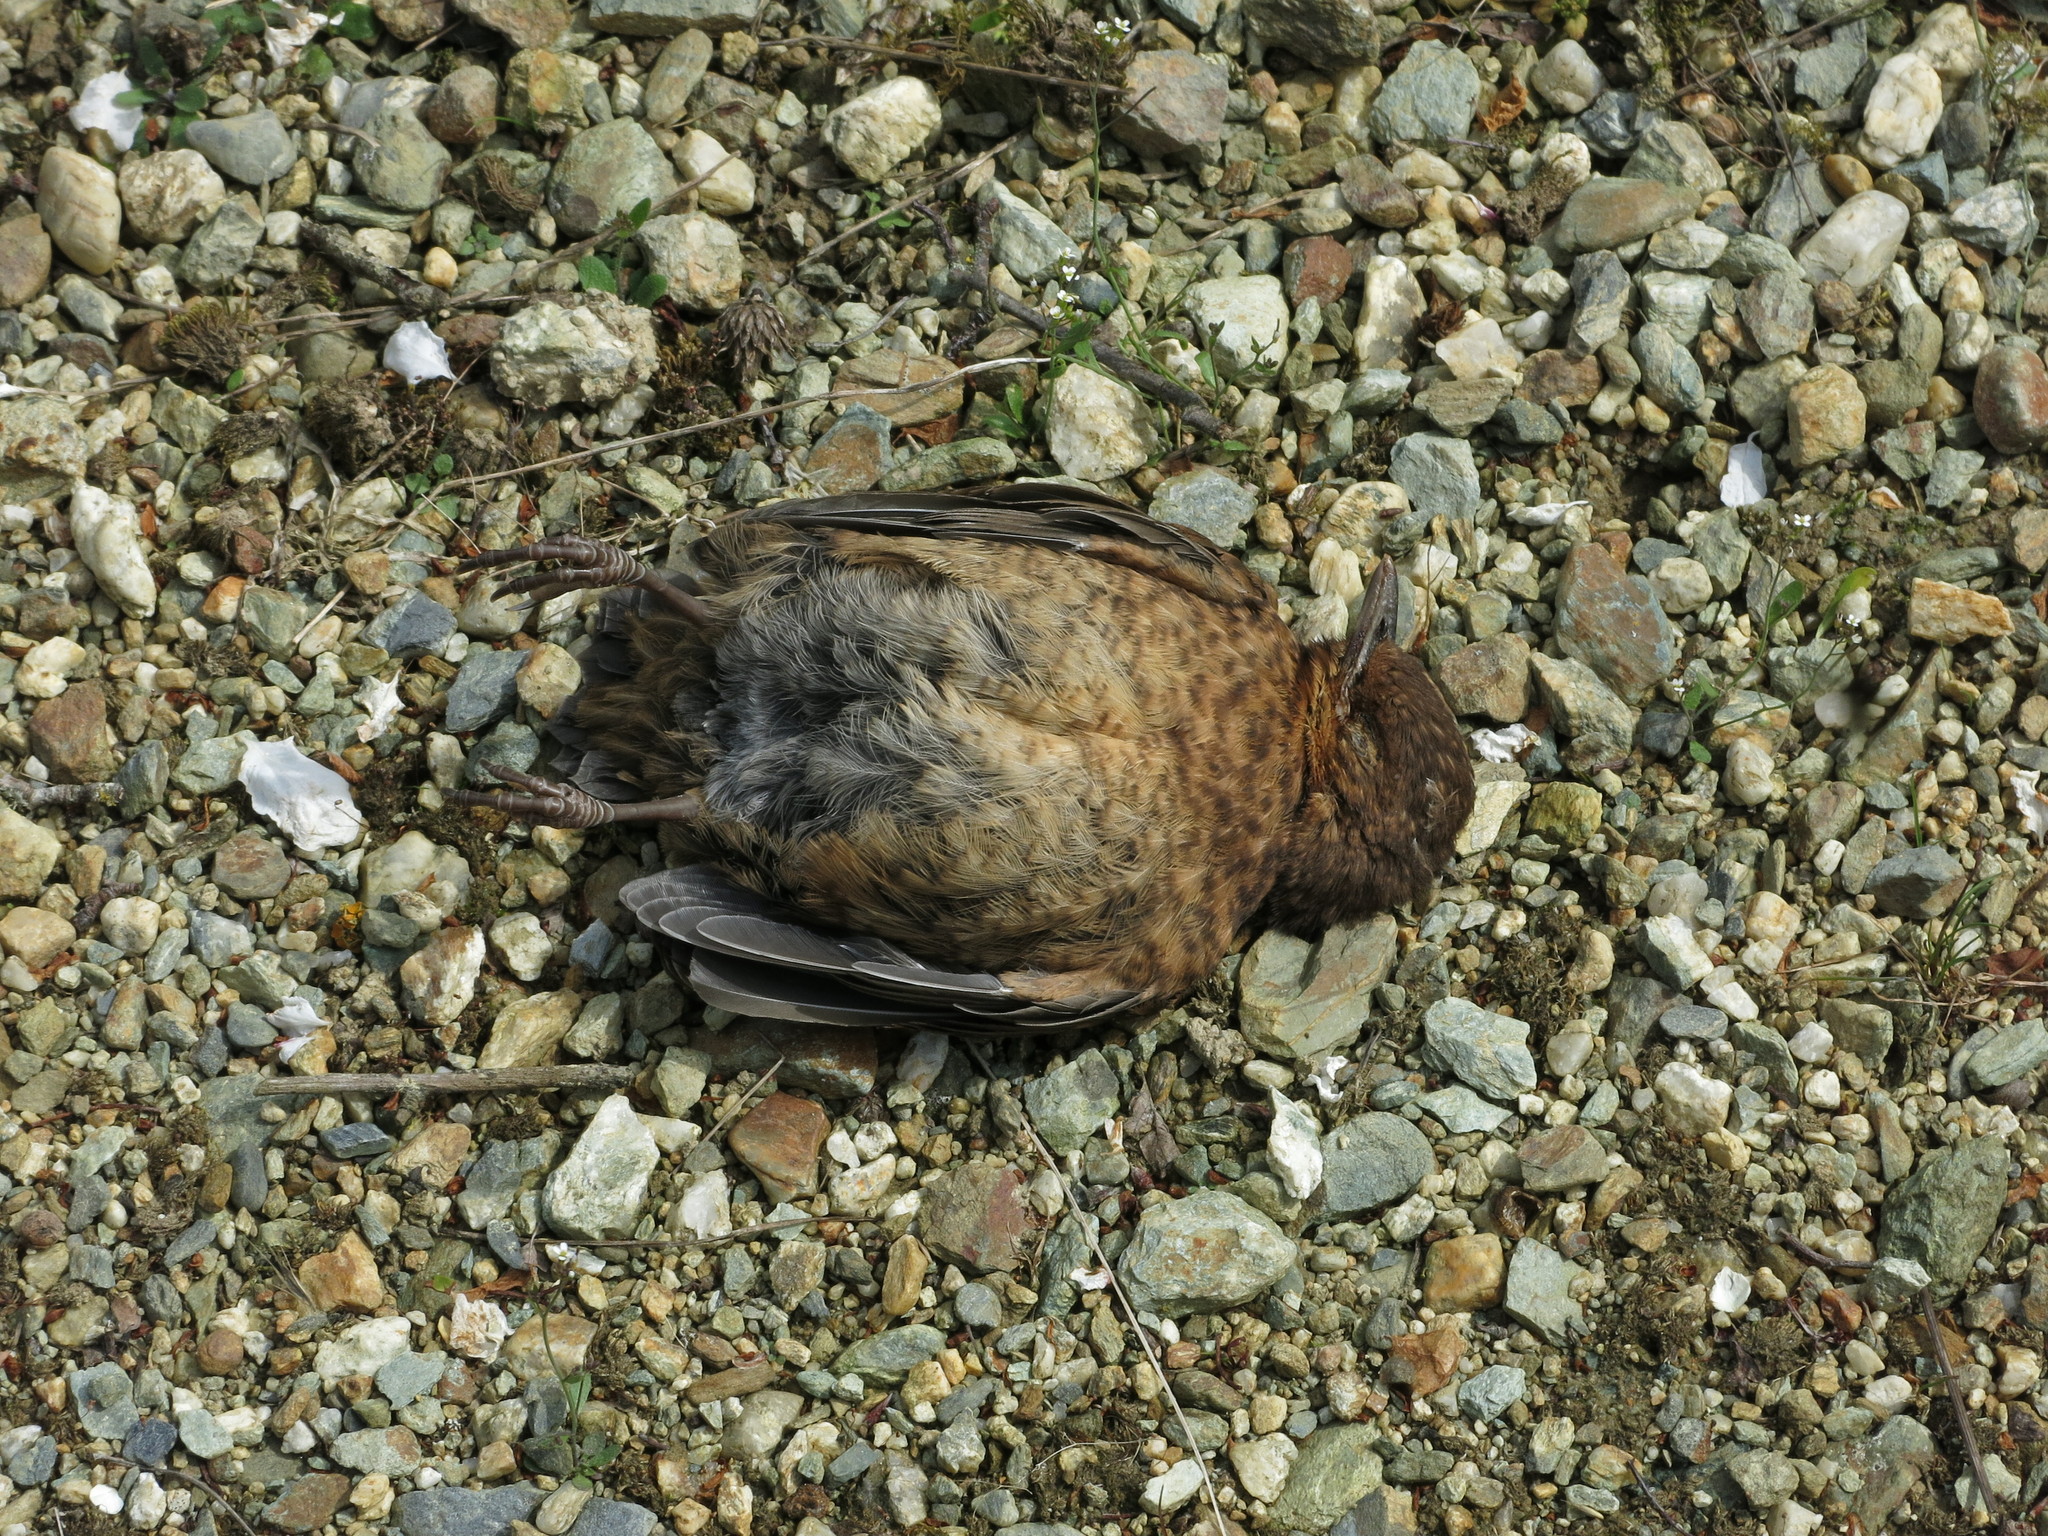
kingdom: Animalia
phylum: Chordata
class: Aves
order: Passeriformes
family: Turdidae
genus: Turdus
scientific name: Turdus merula
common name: Common blackbird
